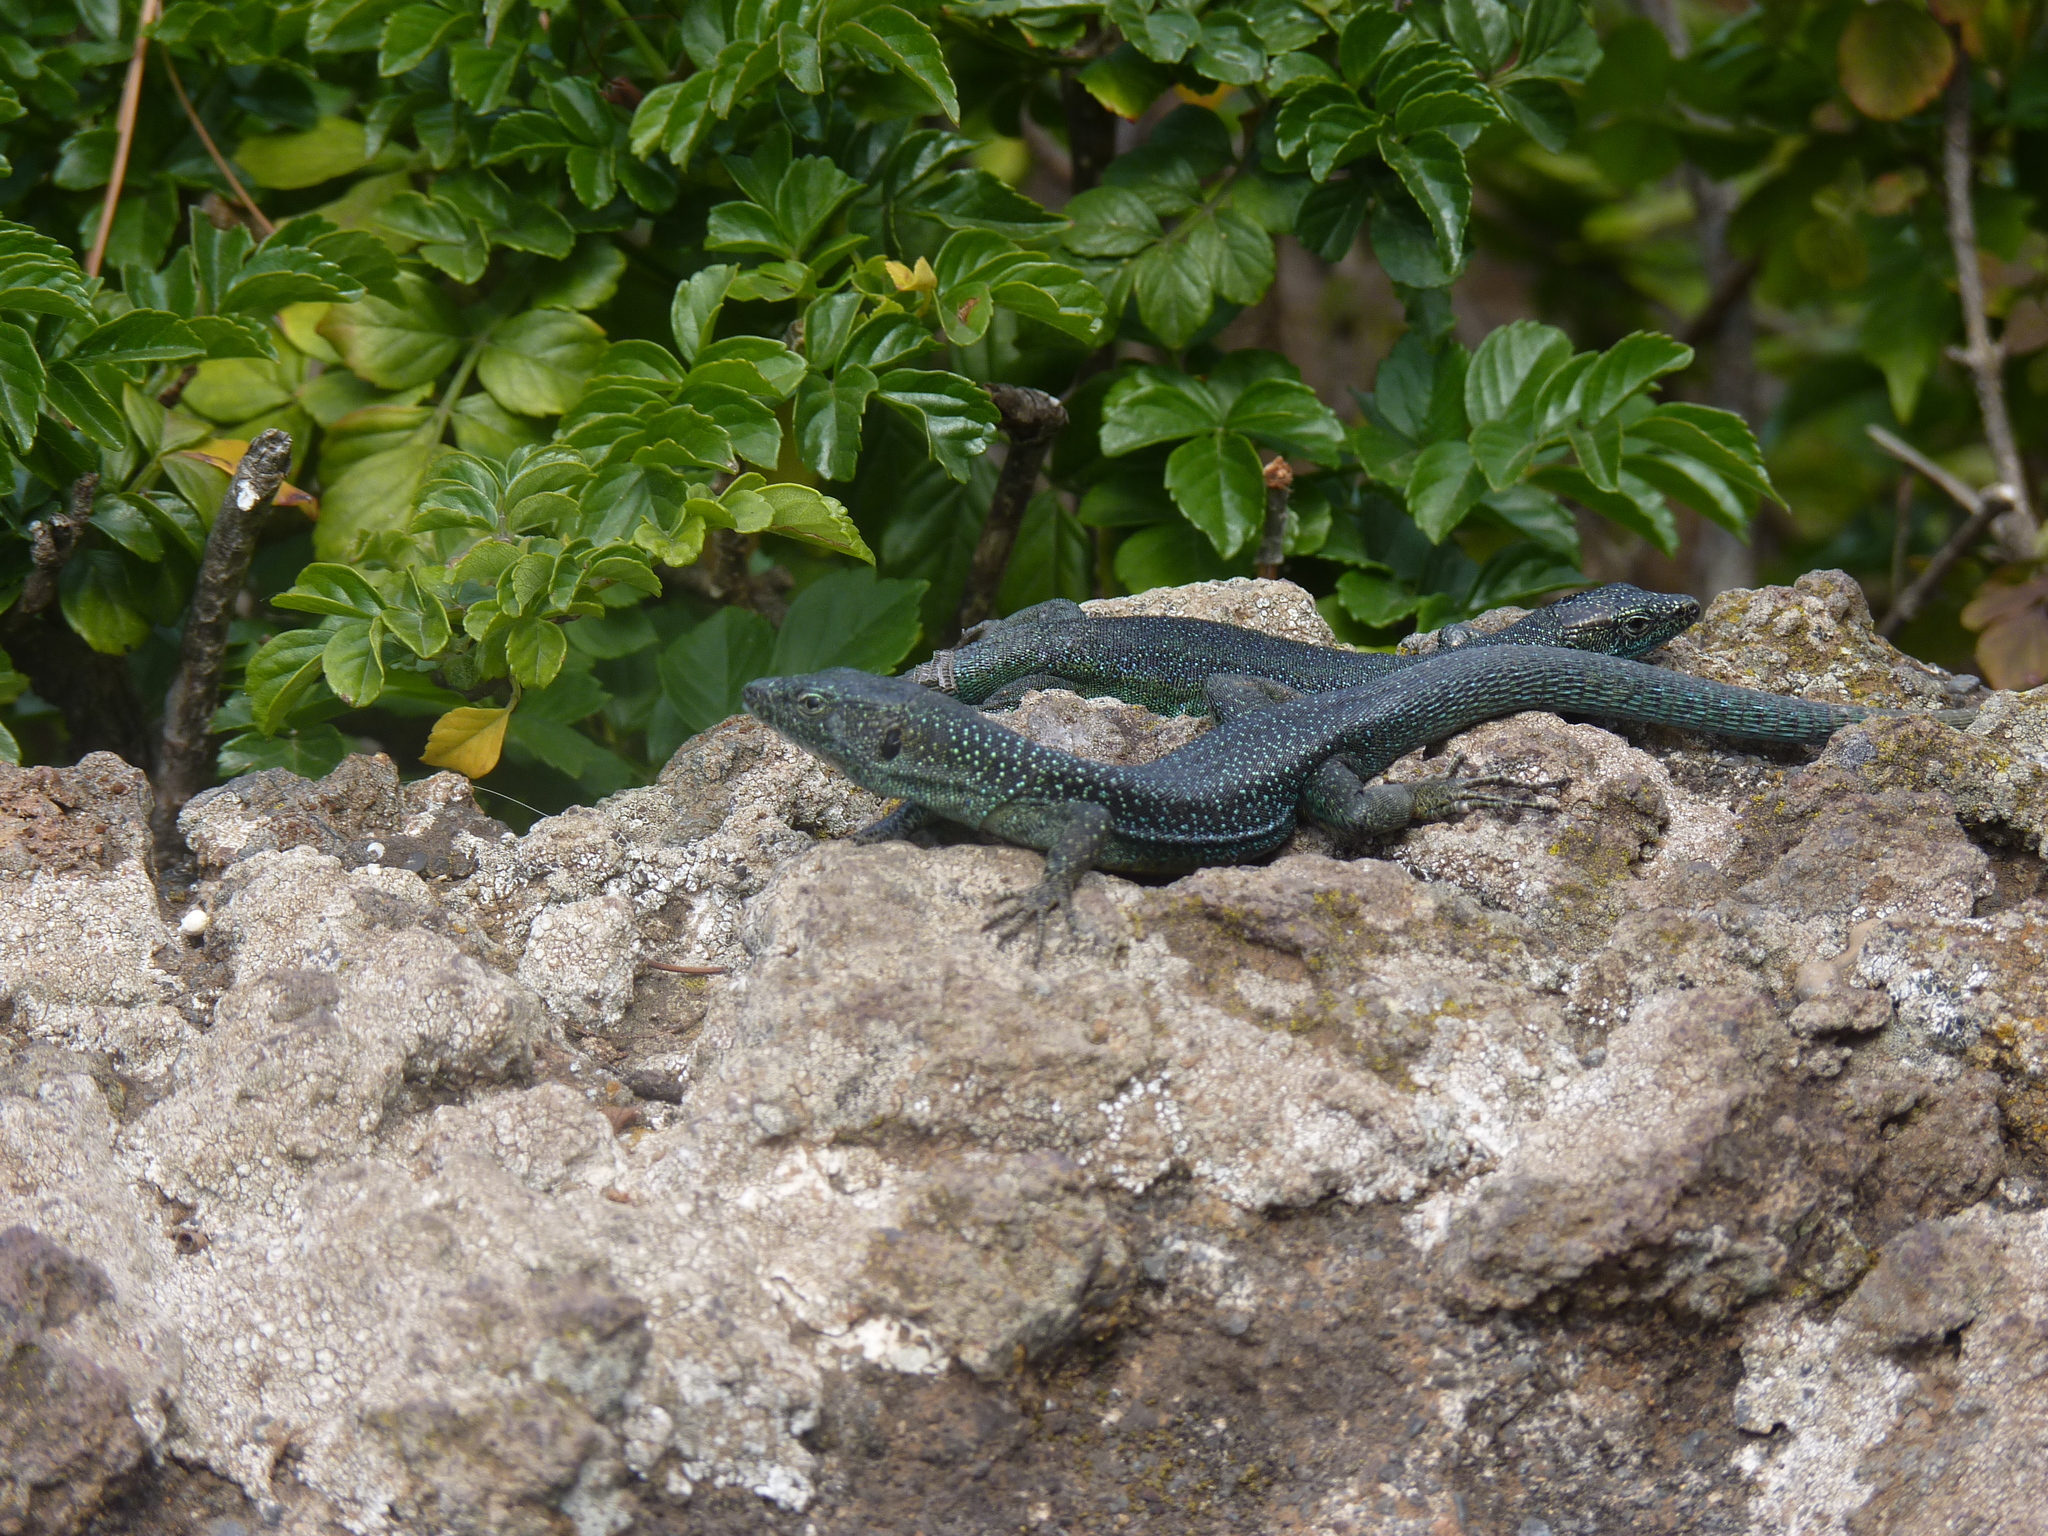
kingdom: Animalia
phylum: Chordata
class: Squamata
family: Lacertidae
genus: Teira
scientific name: Teira dugesii
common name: Madeira lizard
